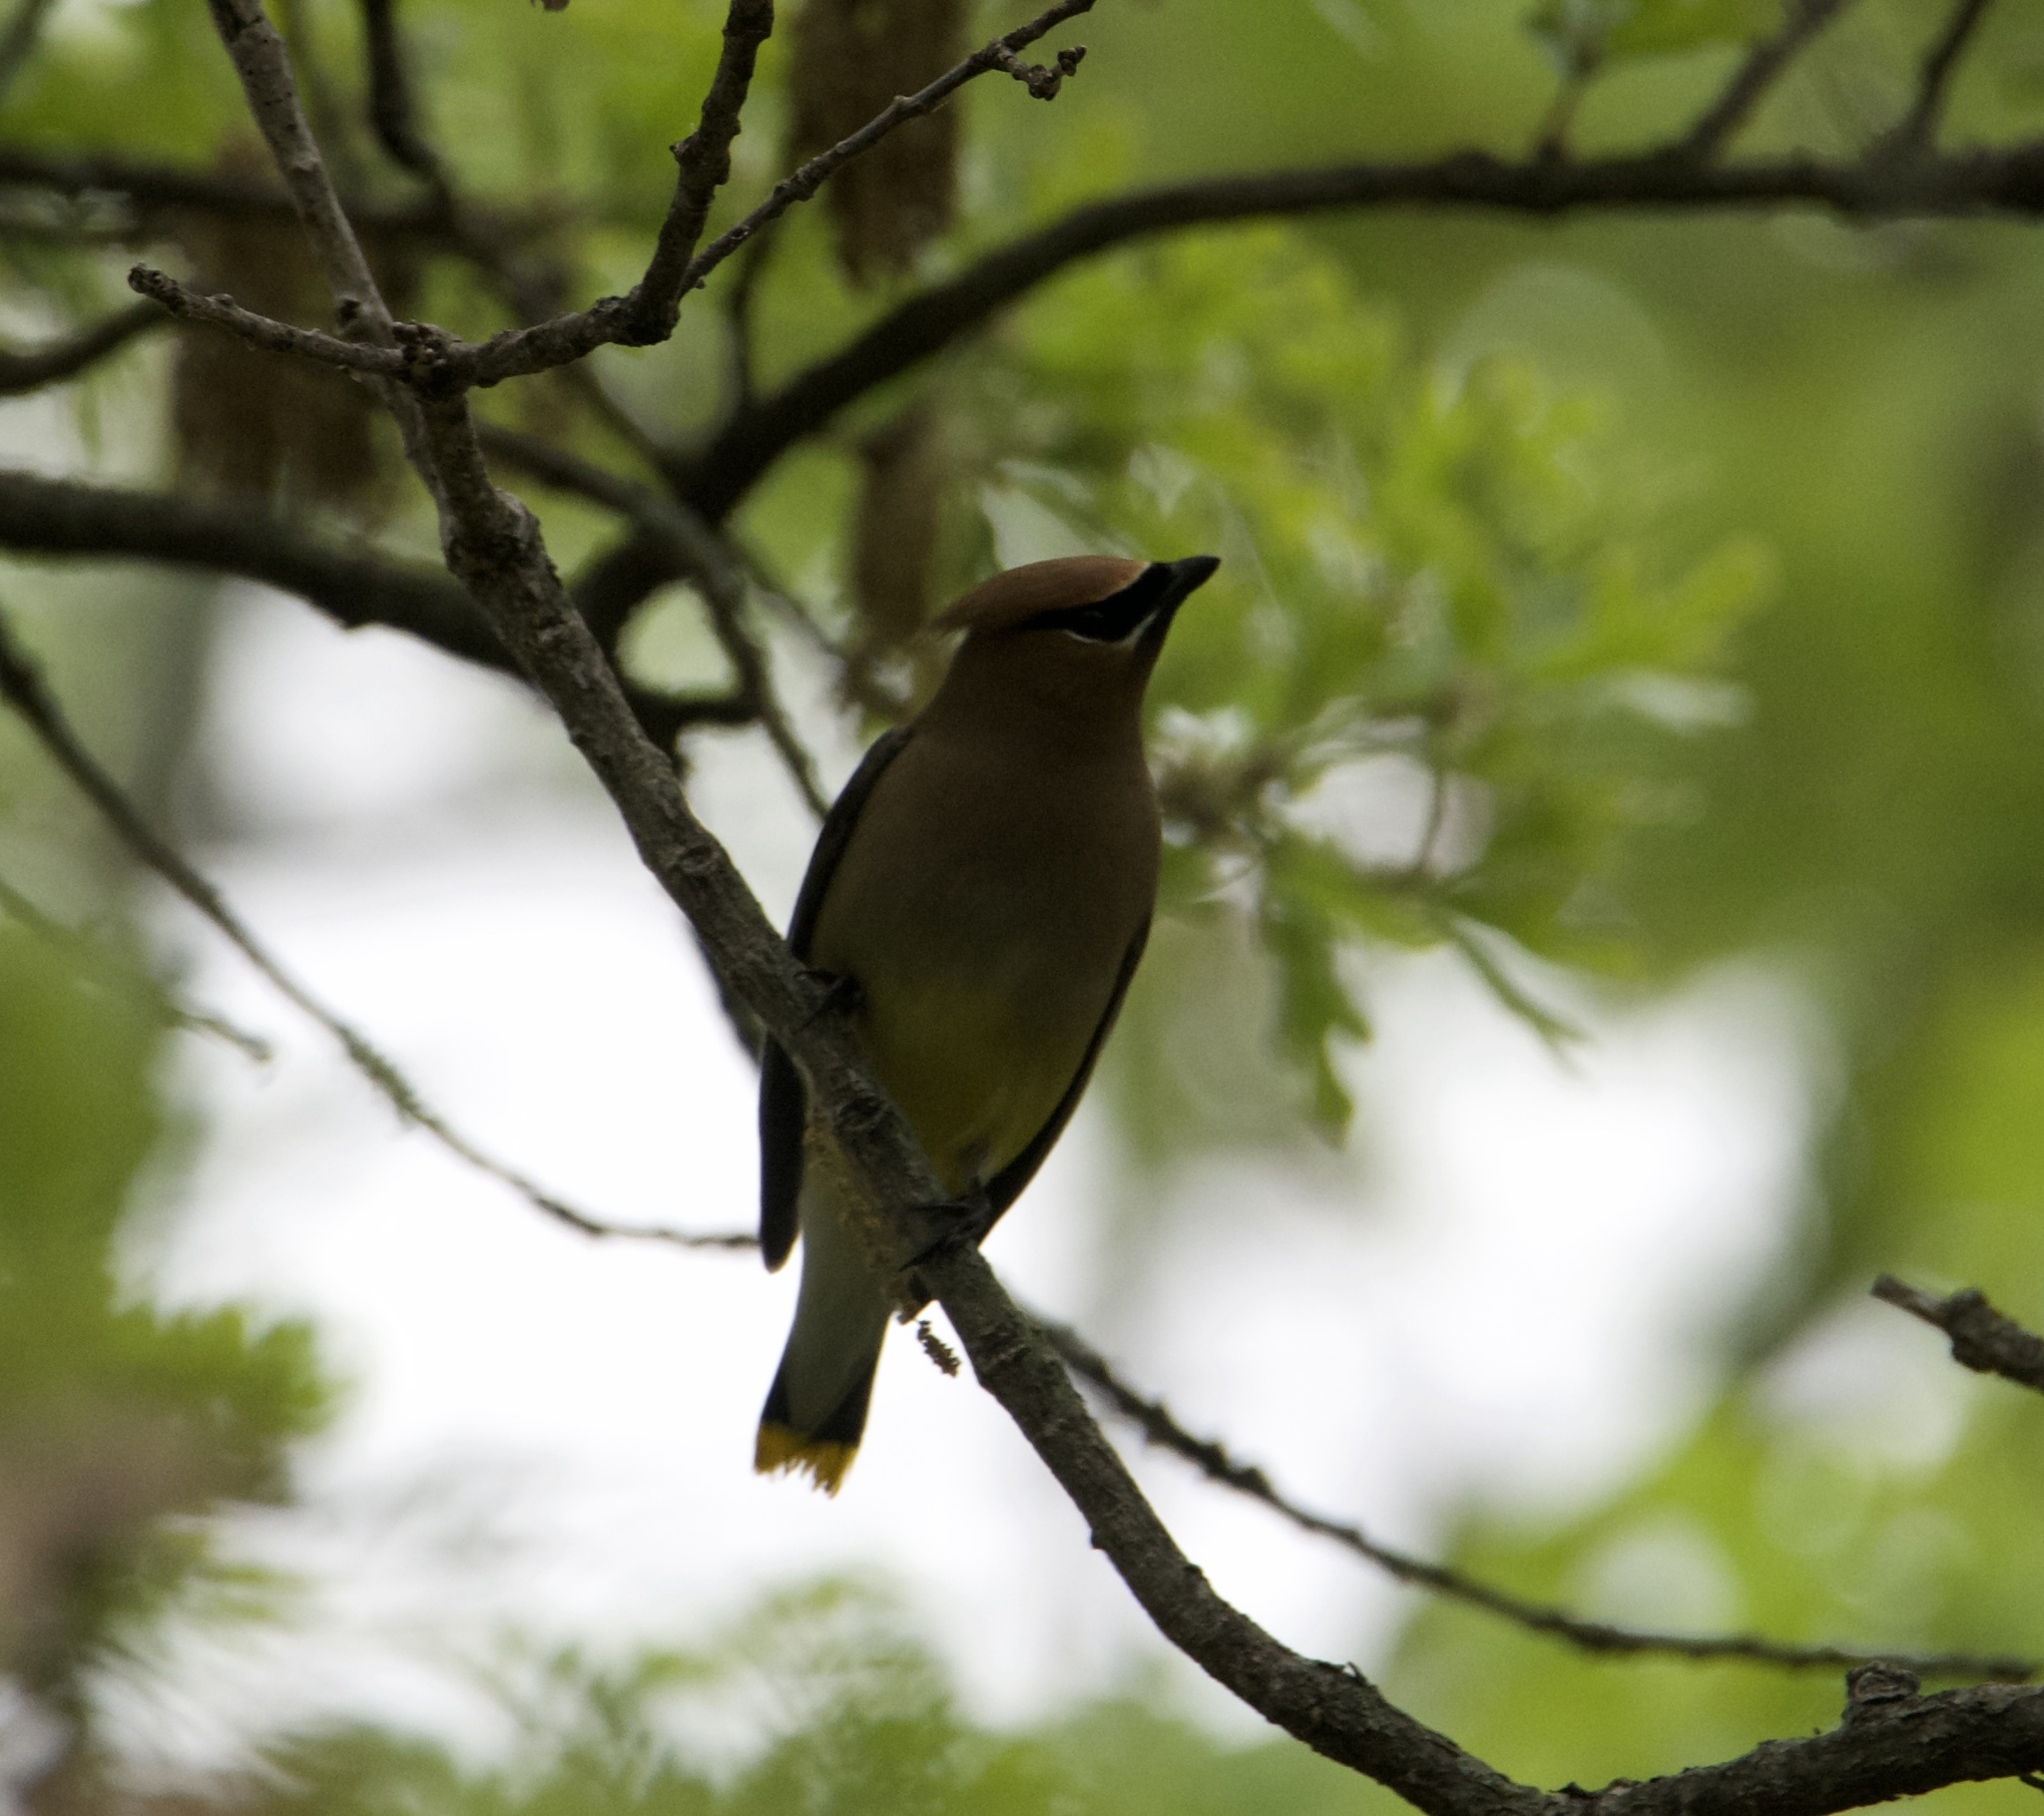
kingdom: Animalia
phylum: Chordata
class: Aves
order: Passeriformes
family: Bombycillidae
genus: Bombycilla
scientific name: Bombycilla cedrorum
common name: Cedar waxwing
